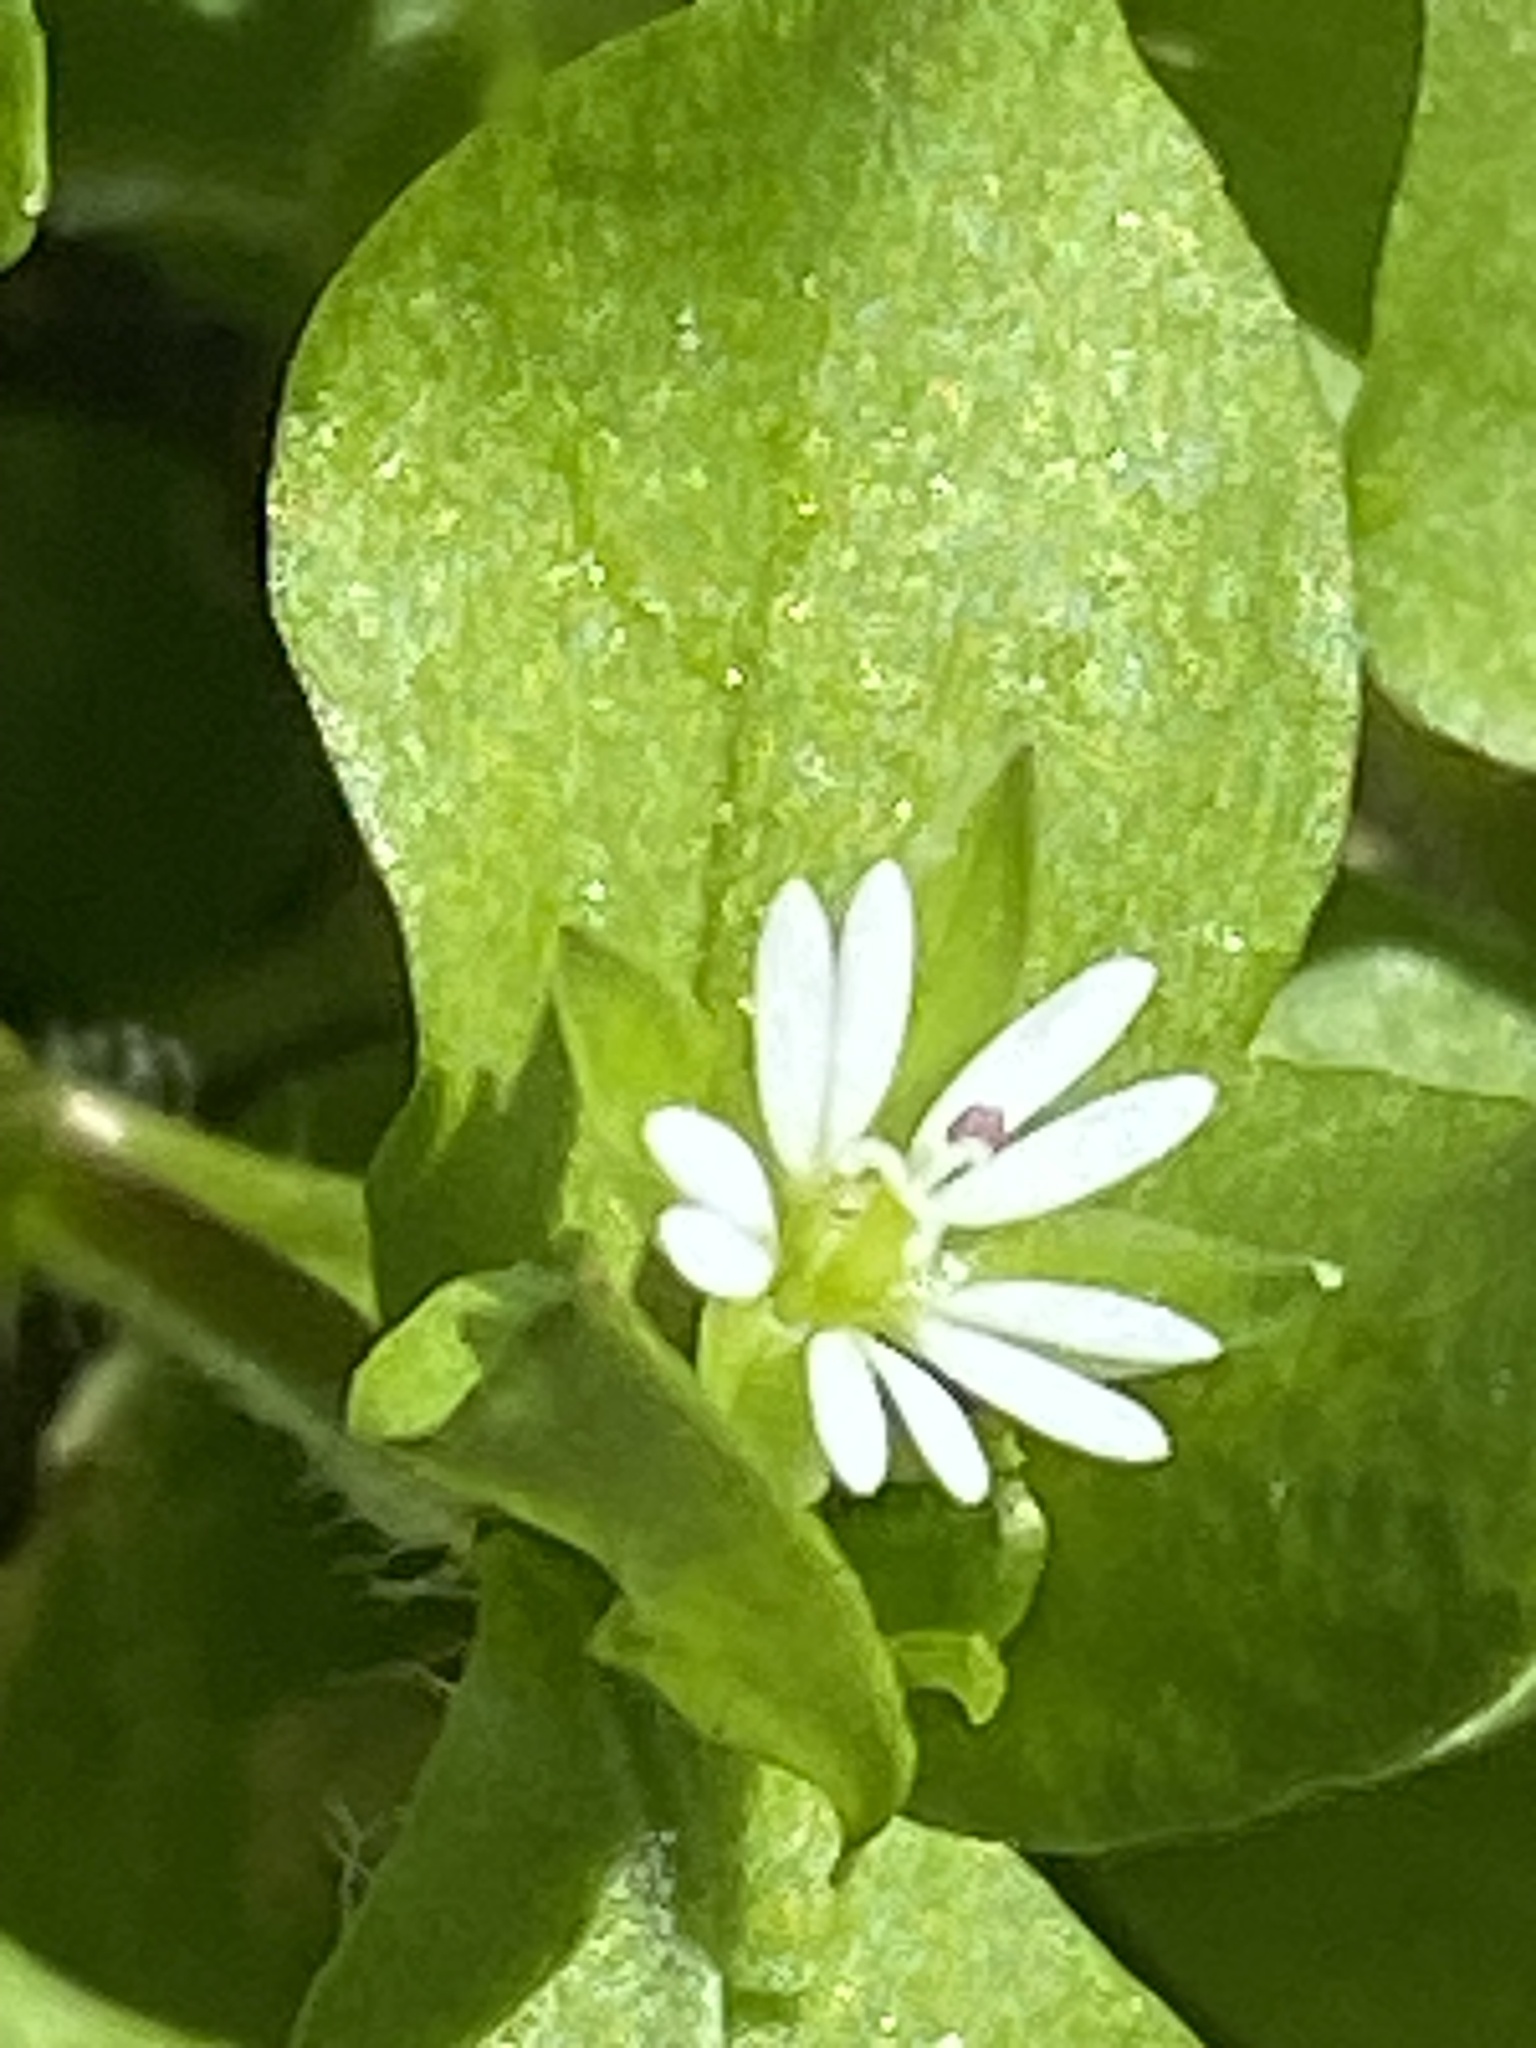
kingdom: Plantae
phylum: Tracheophyta
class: Magnoliopsida
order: Caryophyllales
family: Caryophyllaceae
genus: Stellaria
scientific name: Stellaria media
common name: Common chickweed
